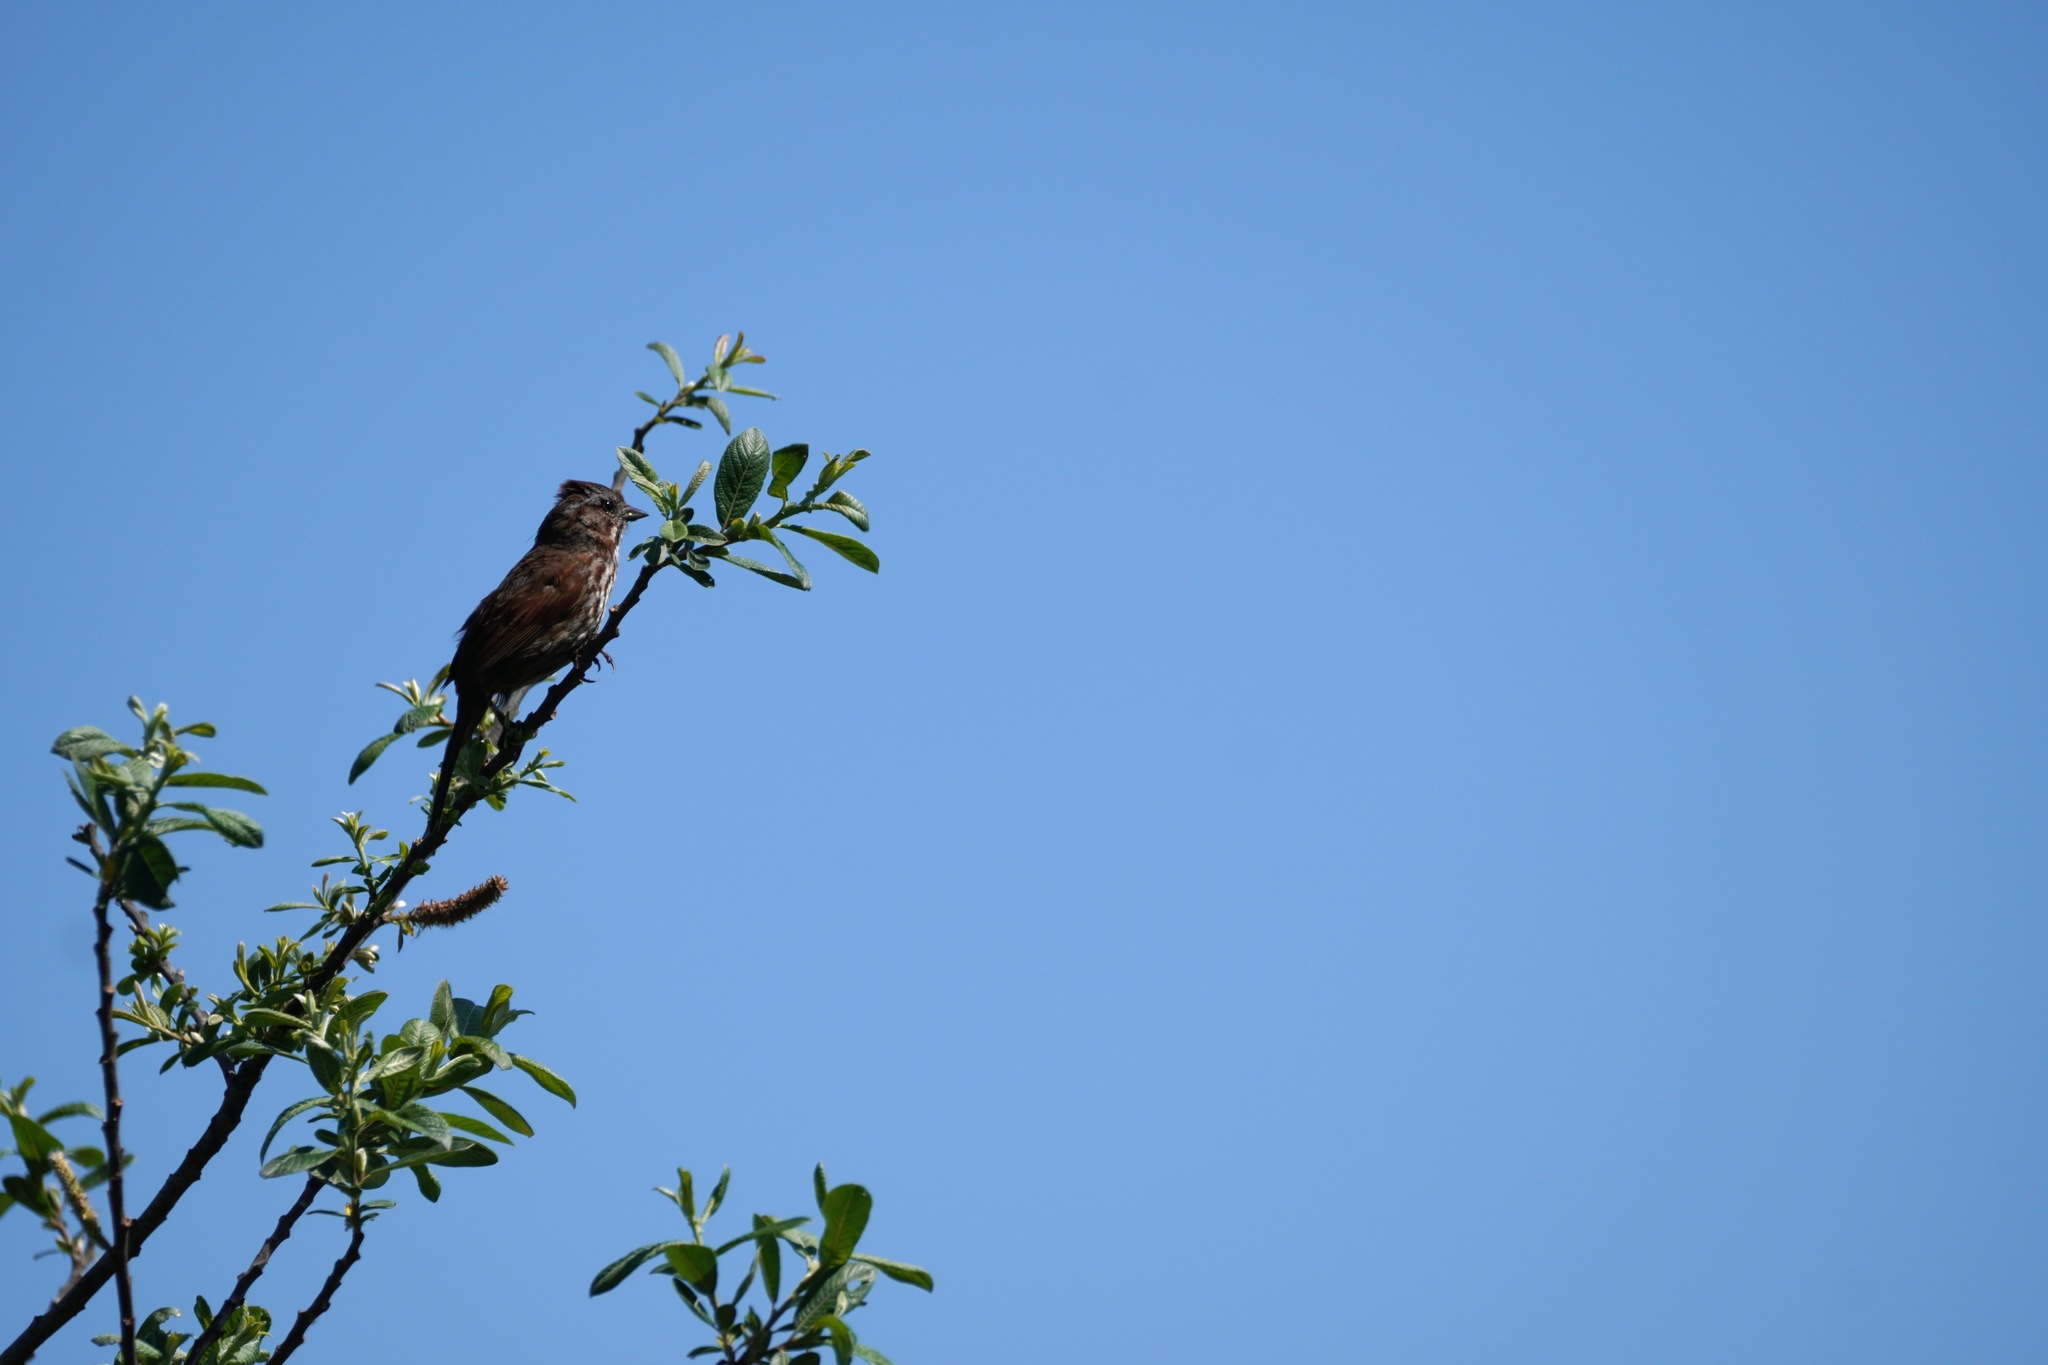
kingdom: Animalia
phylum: Chordata
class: Aves
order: Passeriformes
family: Passerellidae
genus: Melospiza
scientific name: Melospiza melodia
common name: Song sparrow
